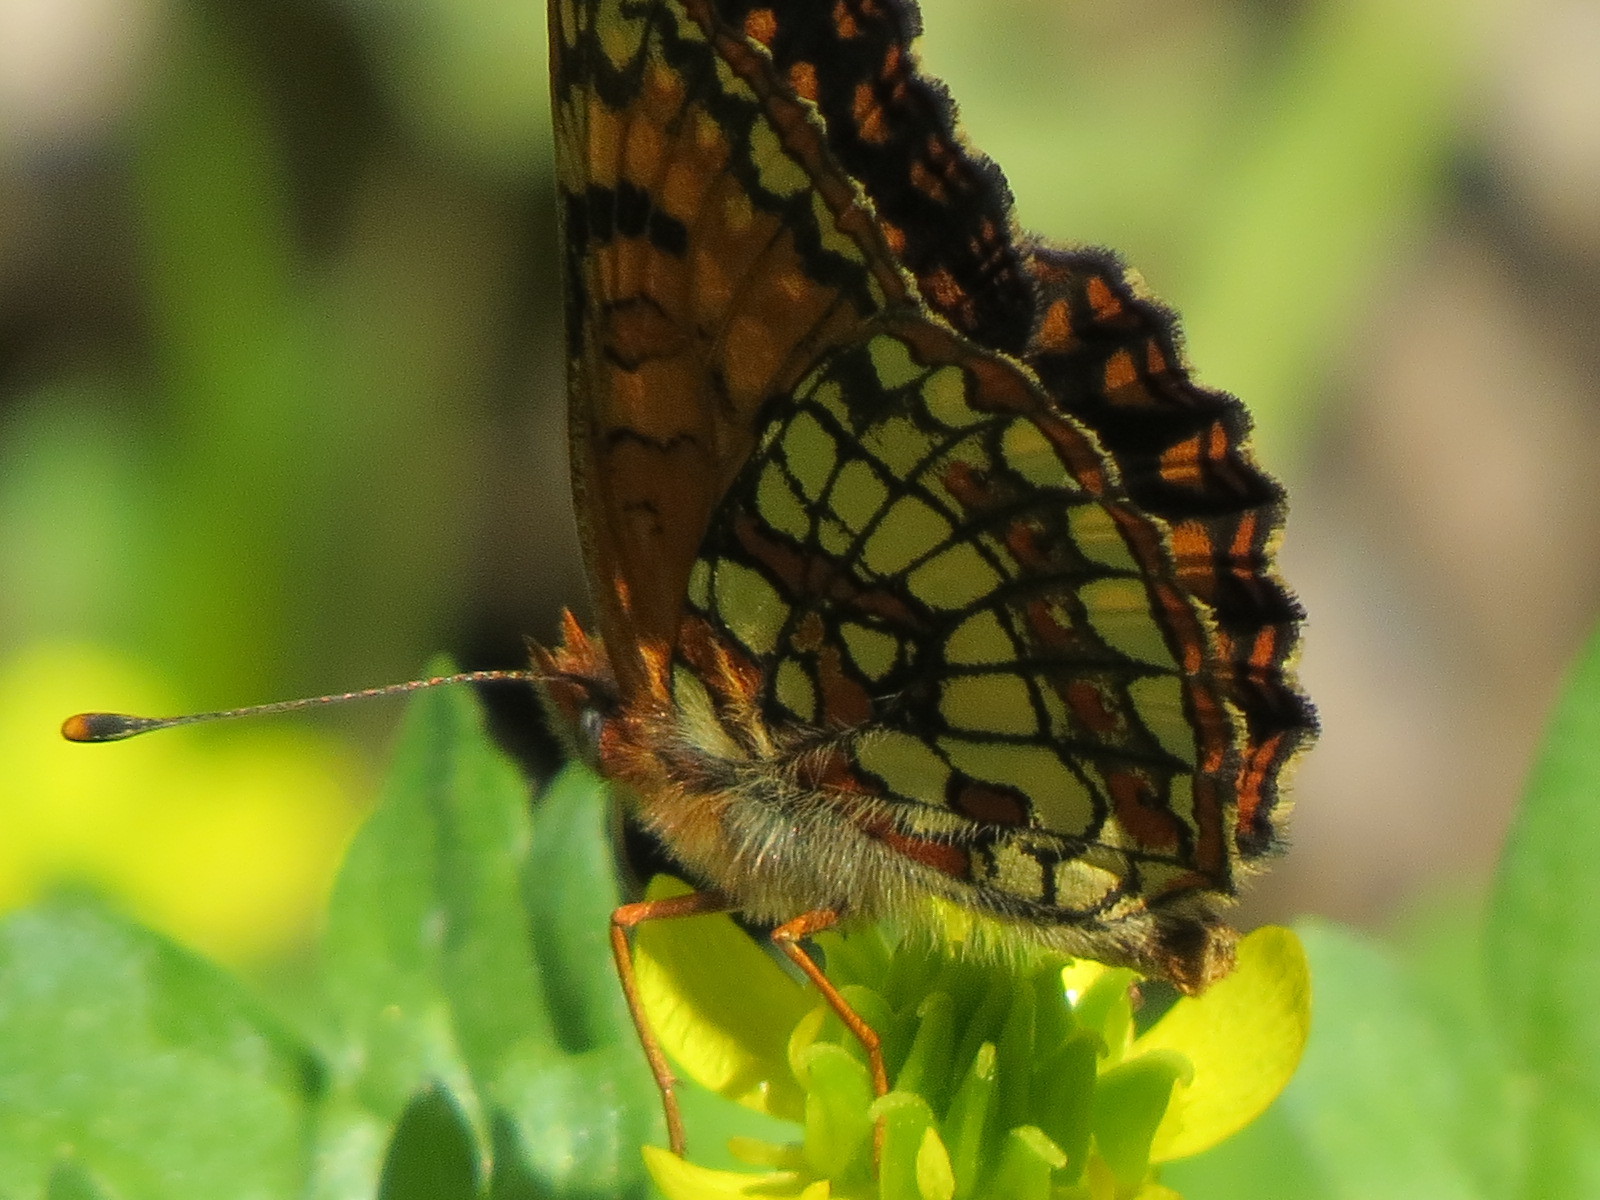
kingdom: Animalia
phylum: Arthropoda
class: Insecta
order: Lepidoptera
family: Nymphalidae
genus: Chlosyne
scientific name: Chlosyne palla
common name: Northern checkerspot
